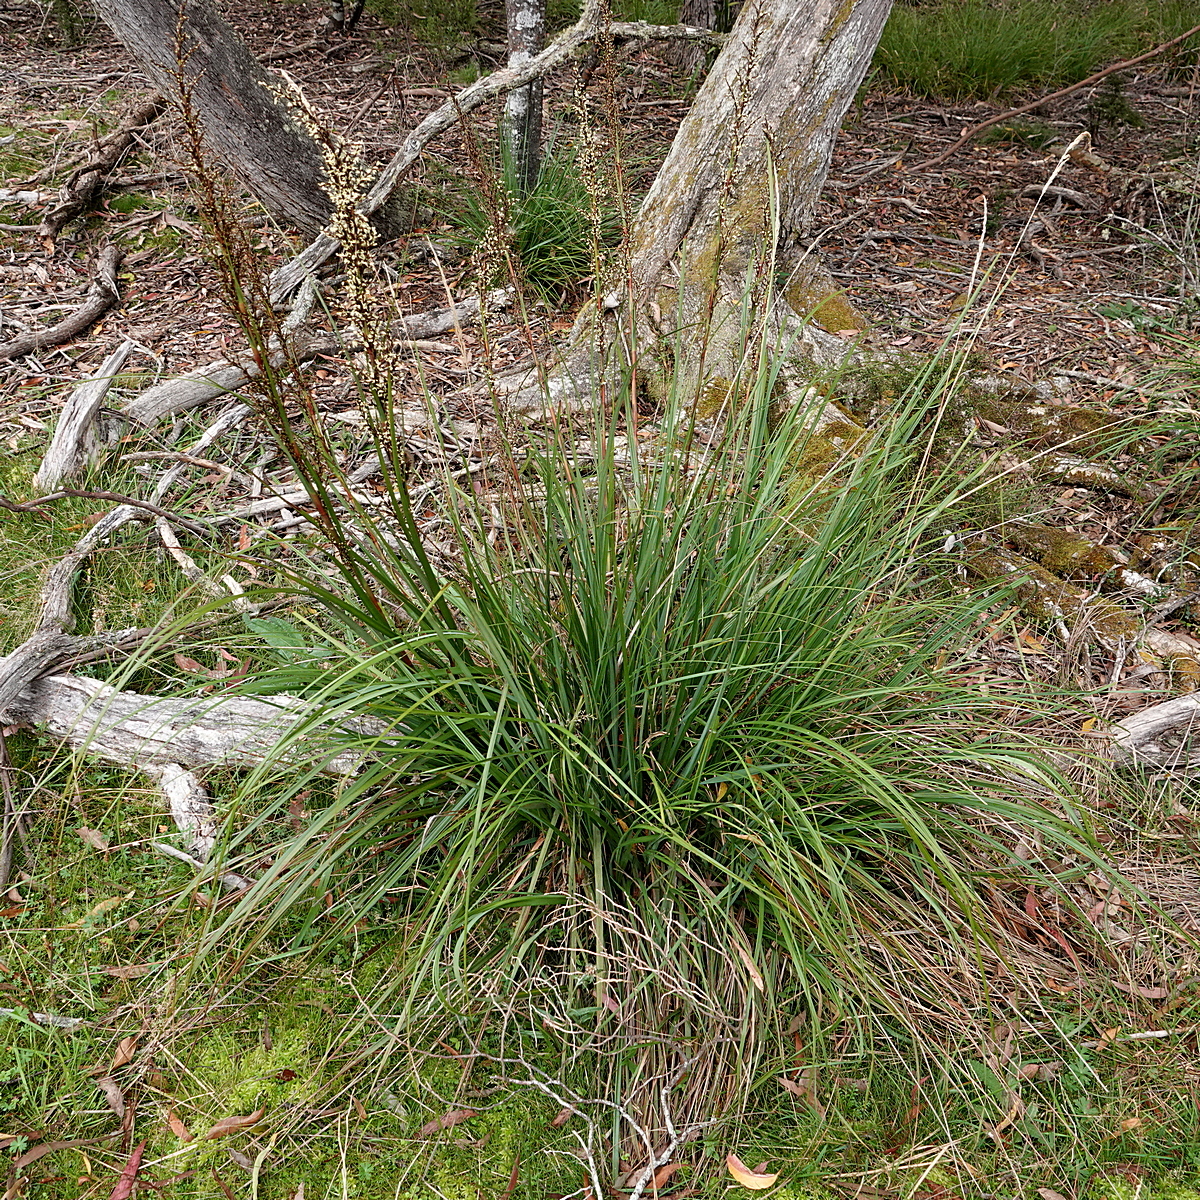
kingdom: Plantae
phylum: Tracheophyta
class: Liliopsida
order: Poales
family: Cyperaceae
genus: Gahnia
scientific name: Gahnia sieberiana
